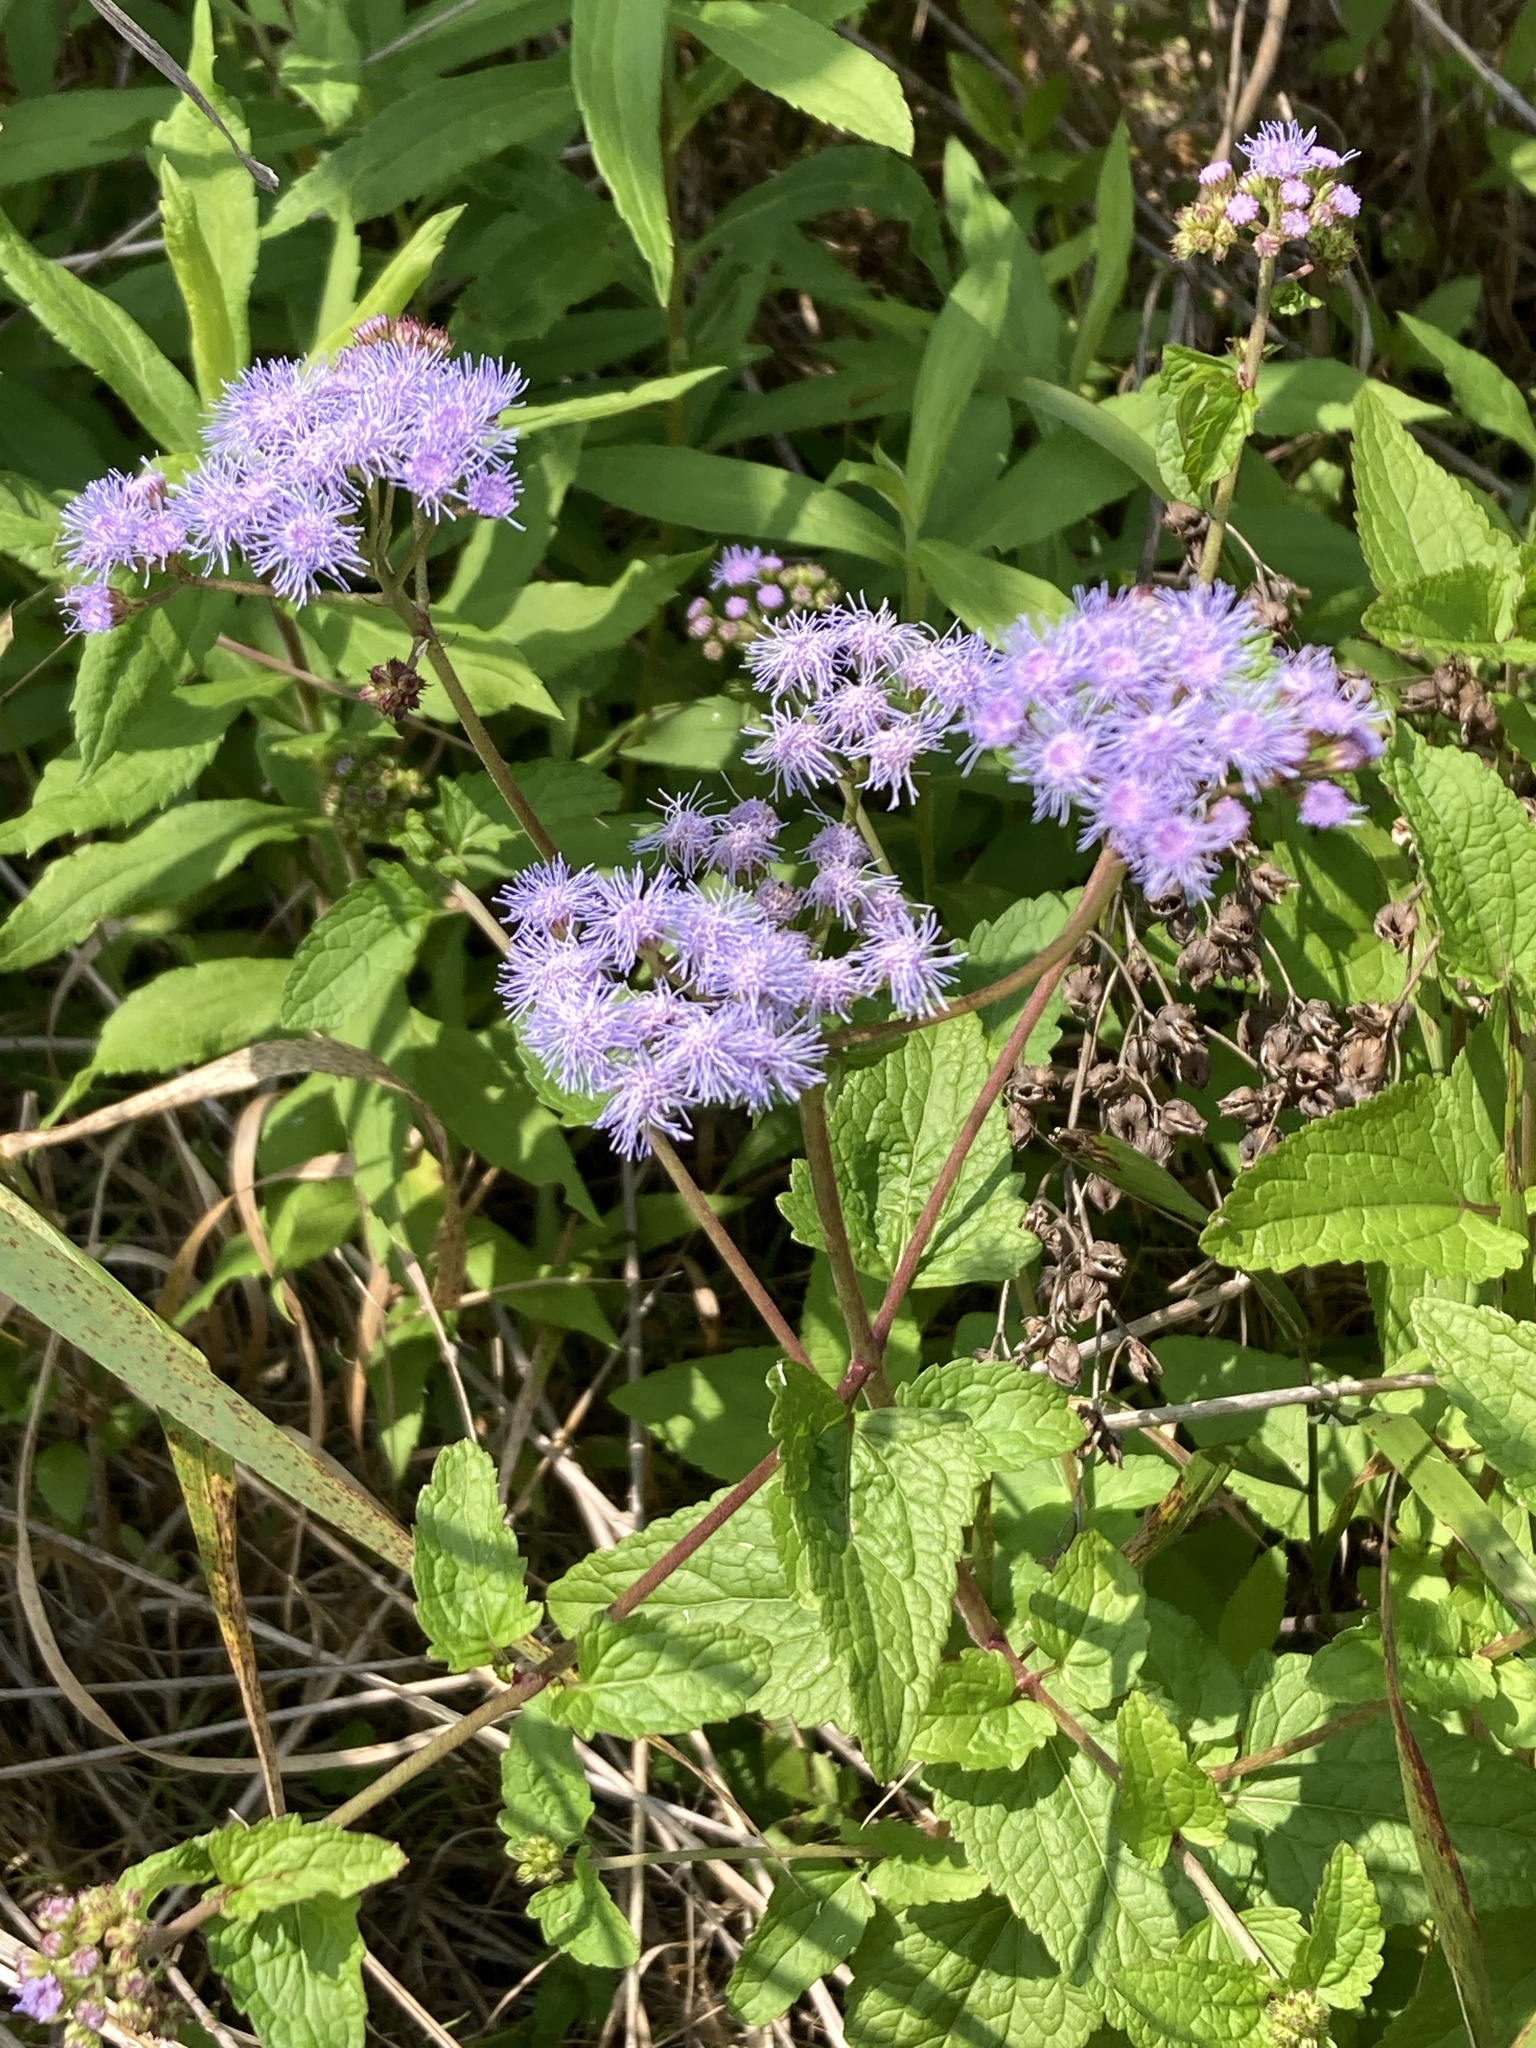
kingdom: Plantae
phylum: Tracheophyta
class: Magnoliopsida
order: Asterales
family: Asteraceae
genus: Conoclinium
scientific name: Conoclinium coelestinum
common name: Blue mistflower
